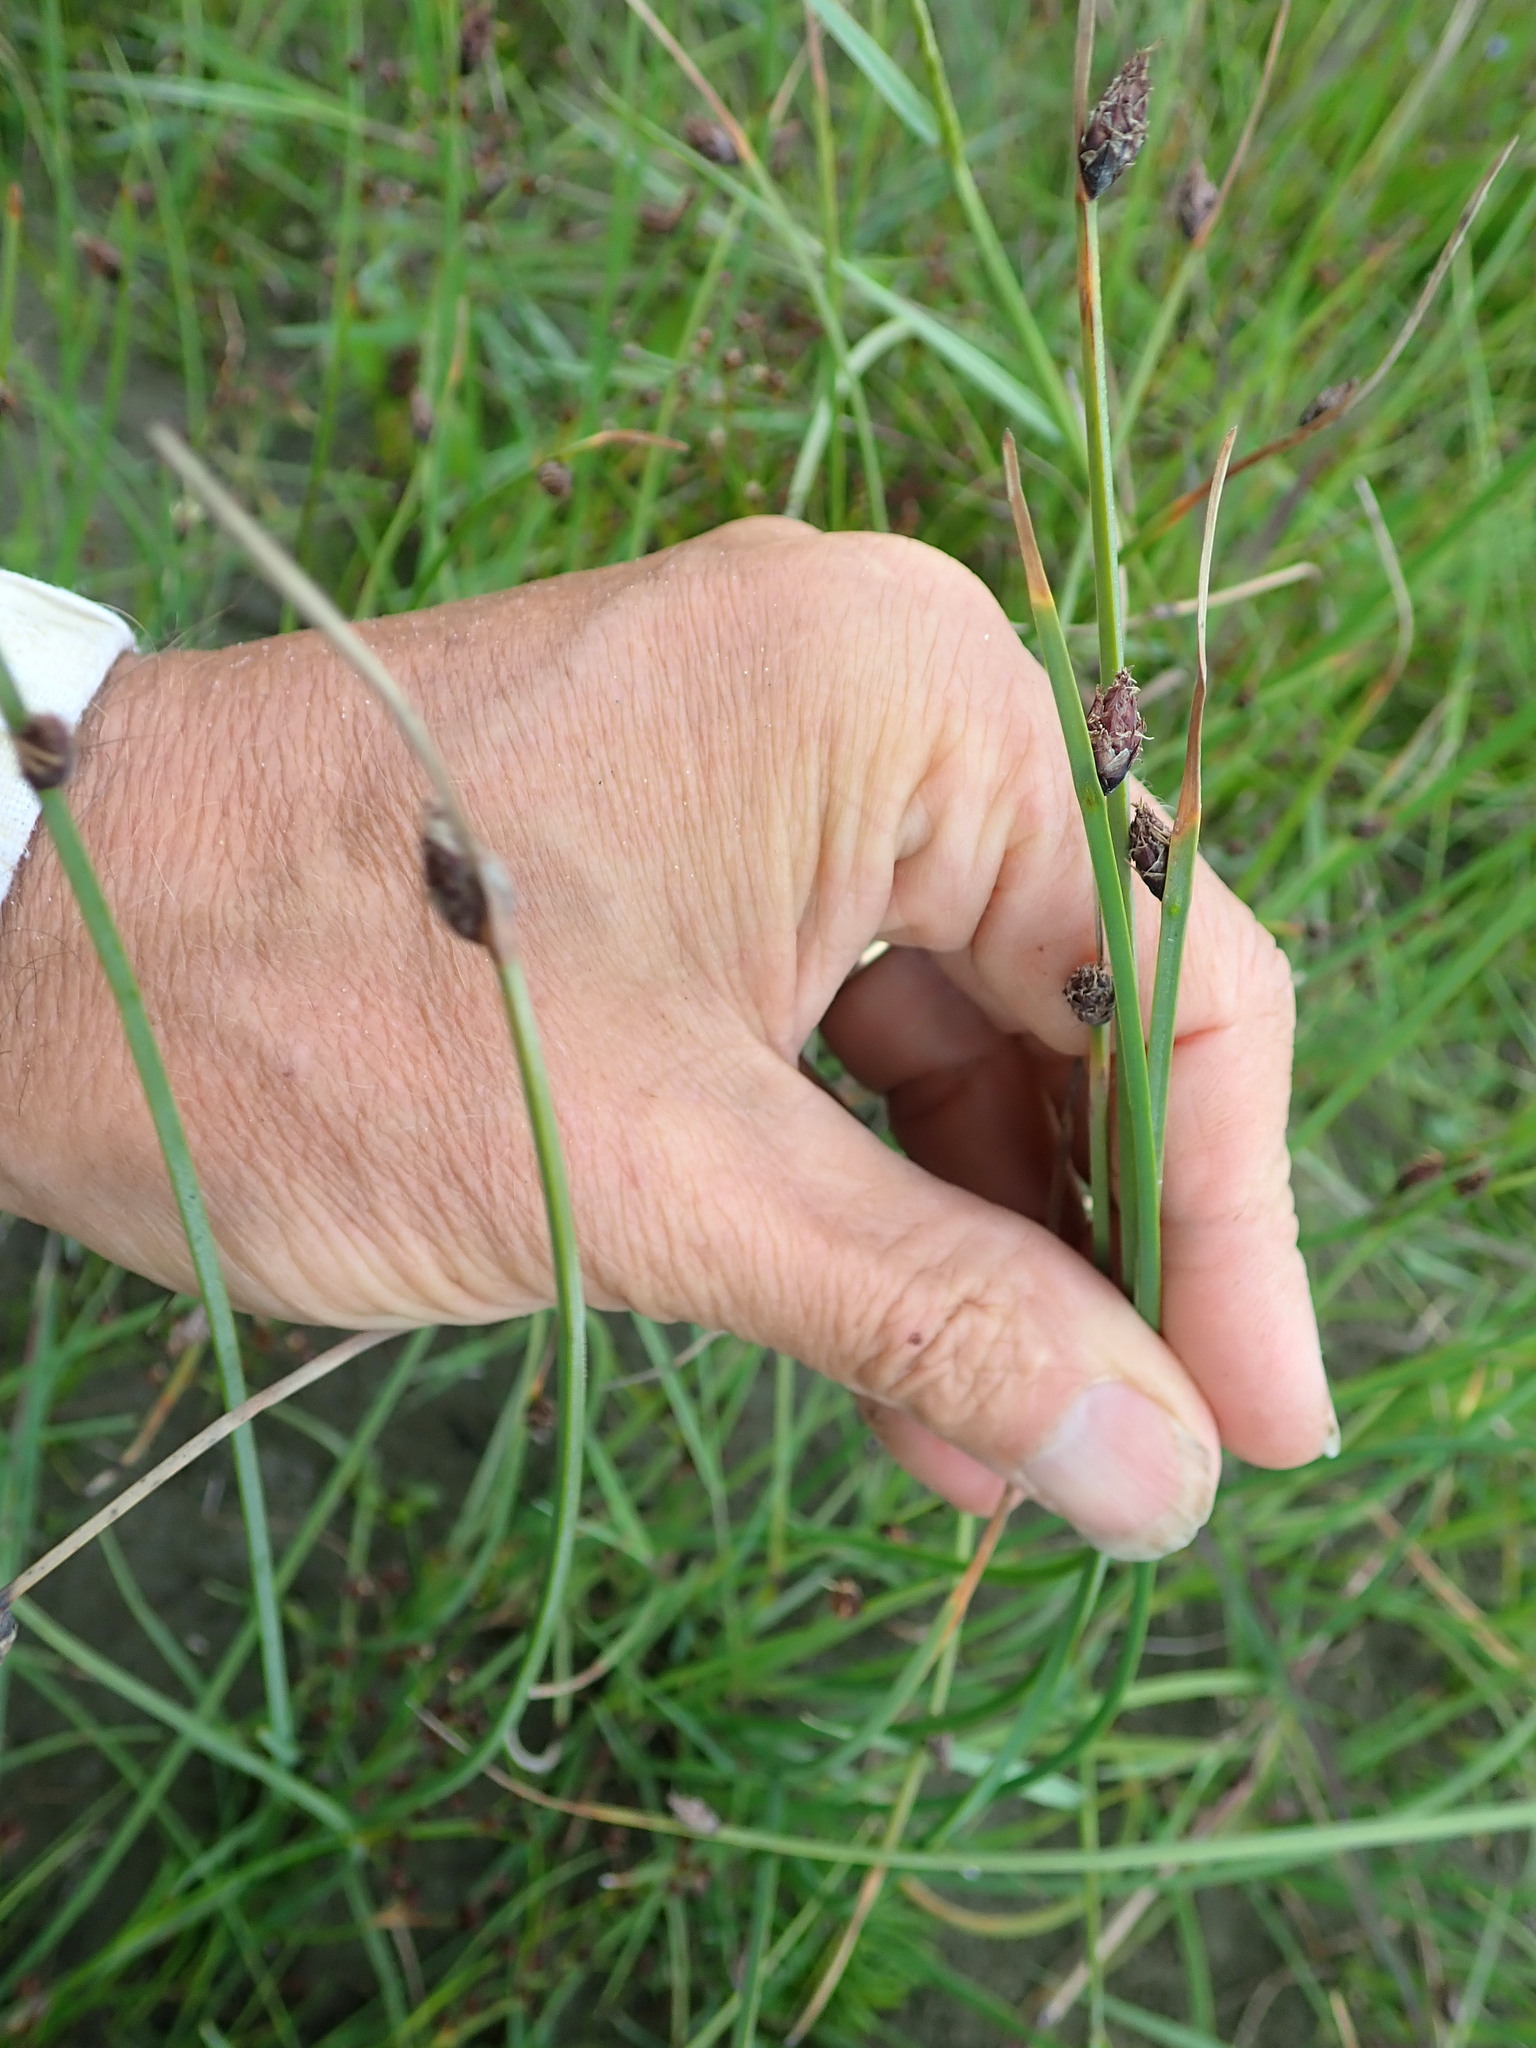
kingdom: Plantae
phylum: Tracheophyta
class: Liliopsida
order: Poales
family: Cyperaceae
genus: Schoenoplectus
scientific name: Schoenoplectus pungens
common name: Sharp club-rush
